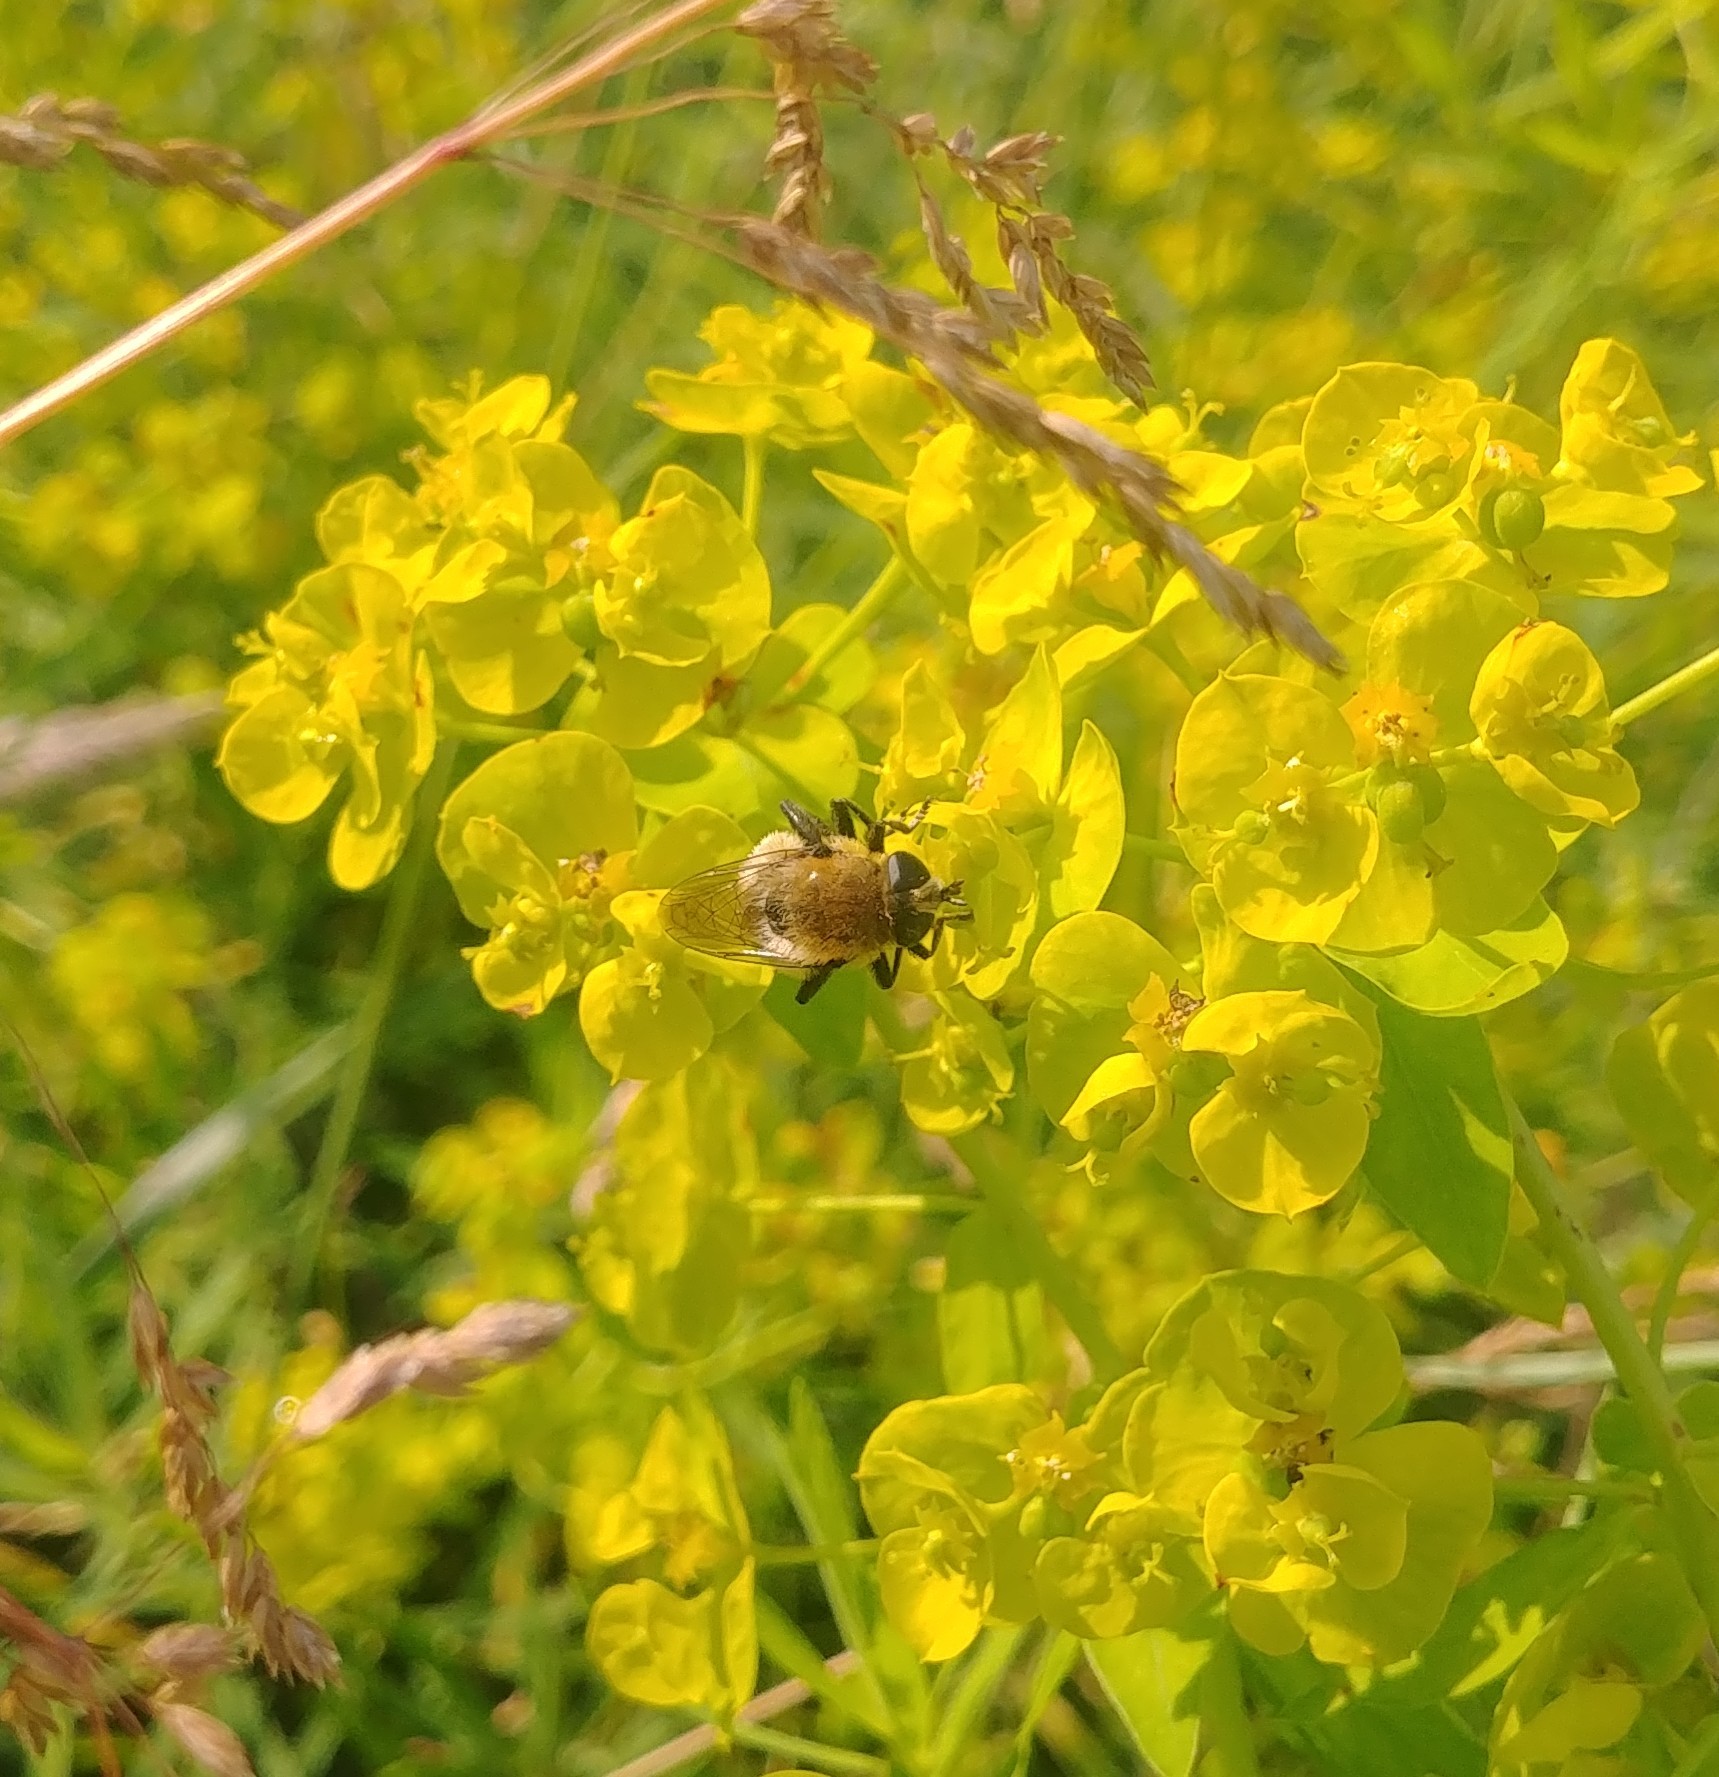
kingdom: Animalia
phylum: Arthropoda
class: Insecta
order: Diptera
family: Syrphidae
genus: Merodon
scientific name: Merodon equestris
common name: Greater bulb-fly
